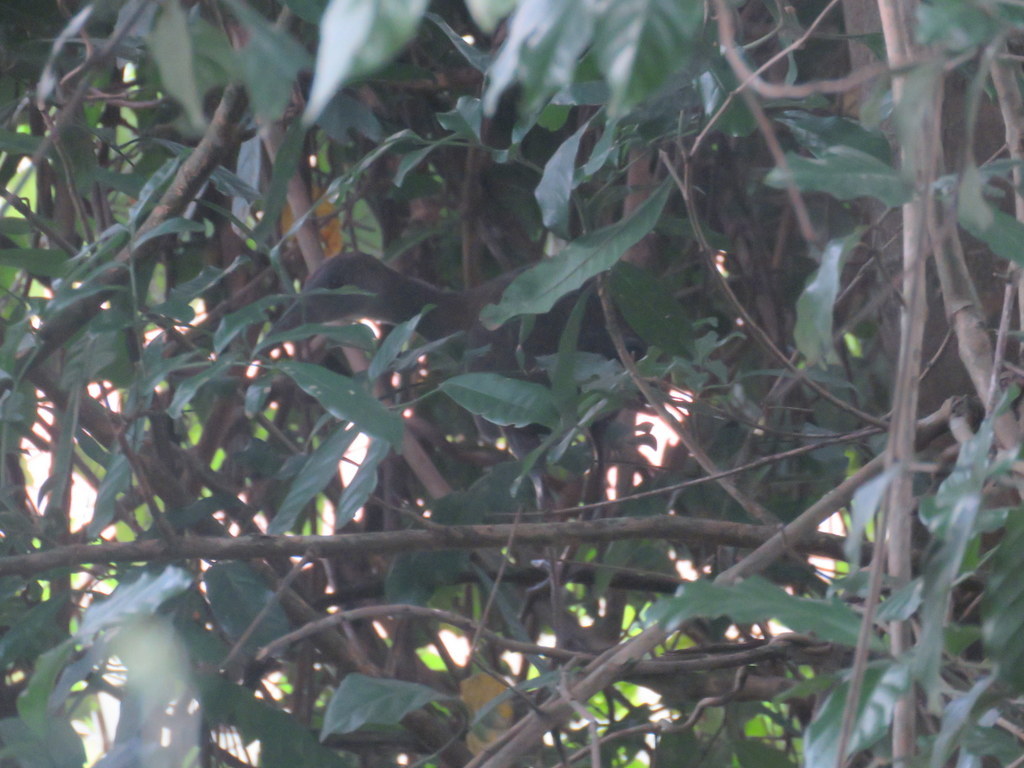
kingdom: Animalia
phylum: Chordata
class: Aves
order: Gruiformes
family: Rallidae
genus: Aramides
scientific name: Aramides saracura
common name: Slaty-breasted wood rail
